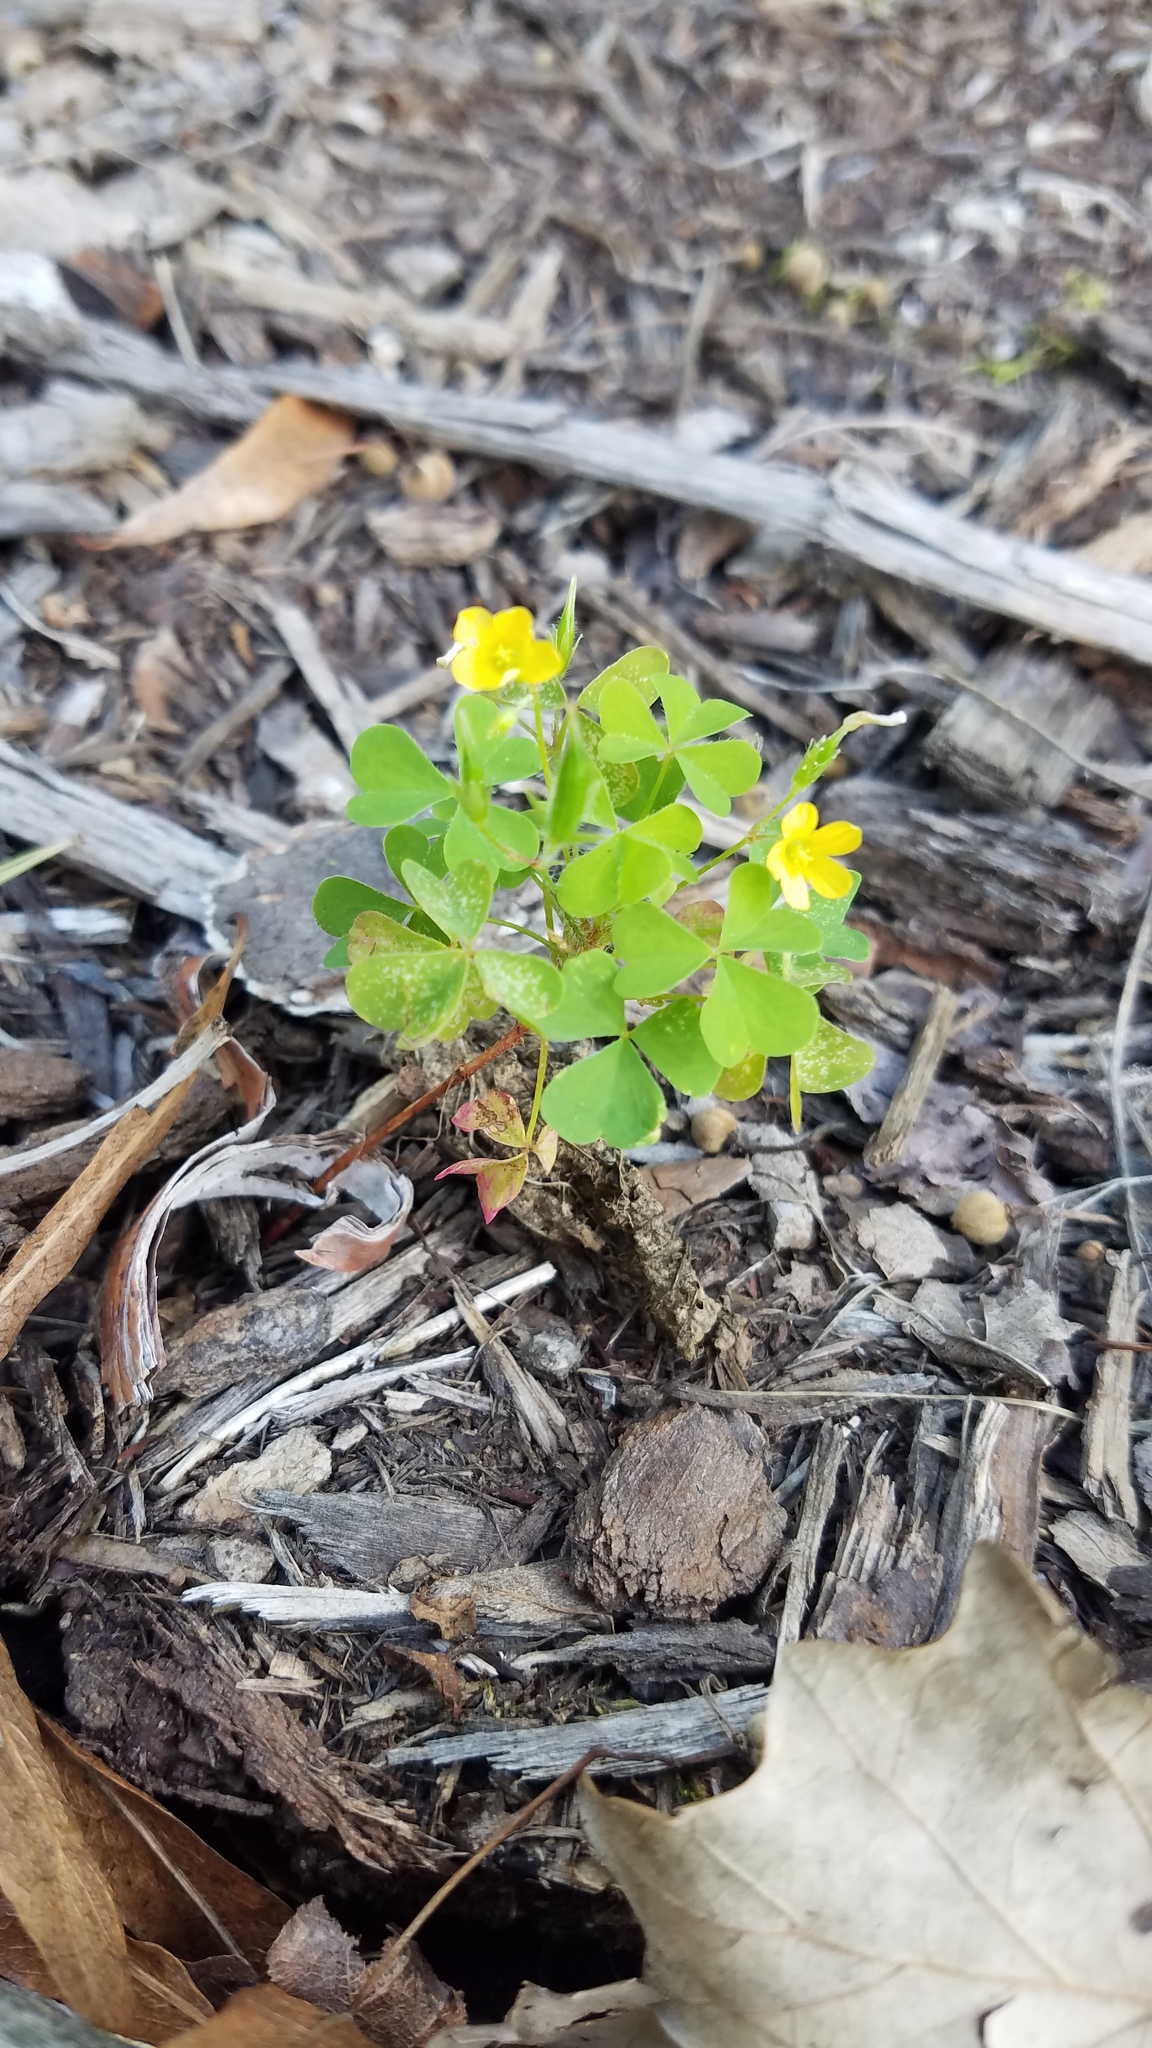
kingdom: Plantae
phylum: Tracheophyta
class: Magnoliopsida
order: Oxalidales
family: Oxalidaceae
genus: Oxalis
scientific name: Oxalis stricta
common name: Upright yellow-sorrel
